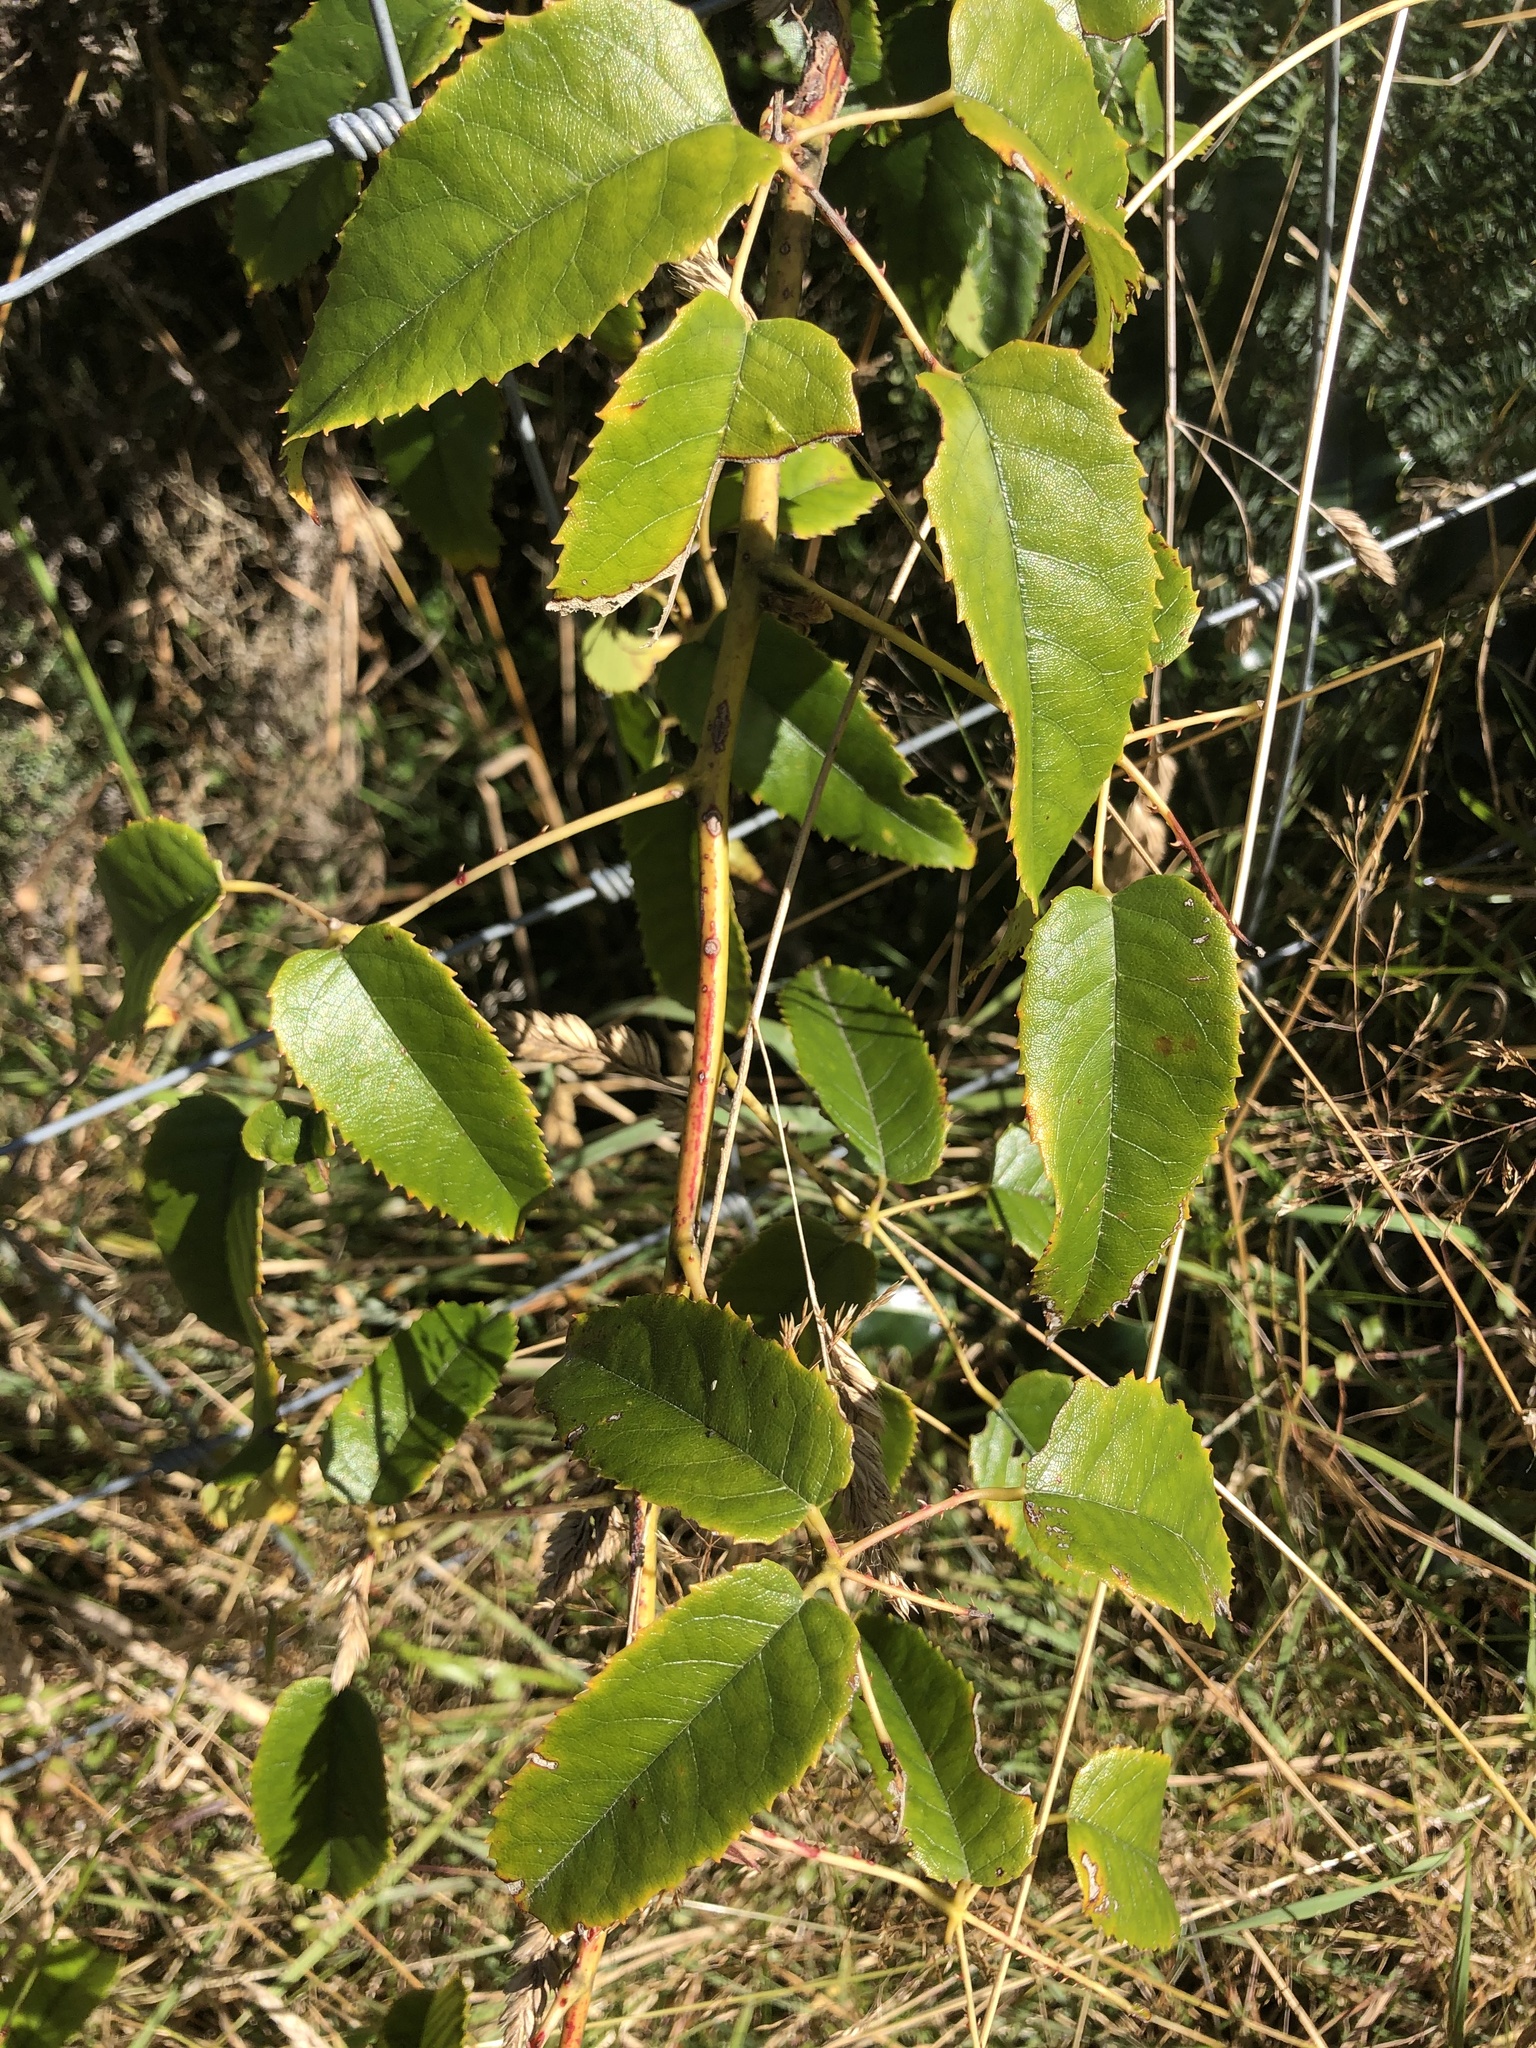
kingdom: Plantae
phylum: Tracheophyta
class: Magnoliopsida
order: Rosales
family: Rosaceae
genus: Rubus
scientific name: Rubus cissoides
